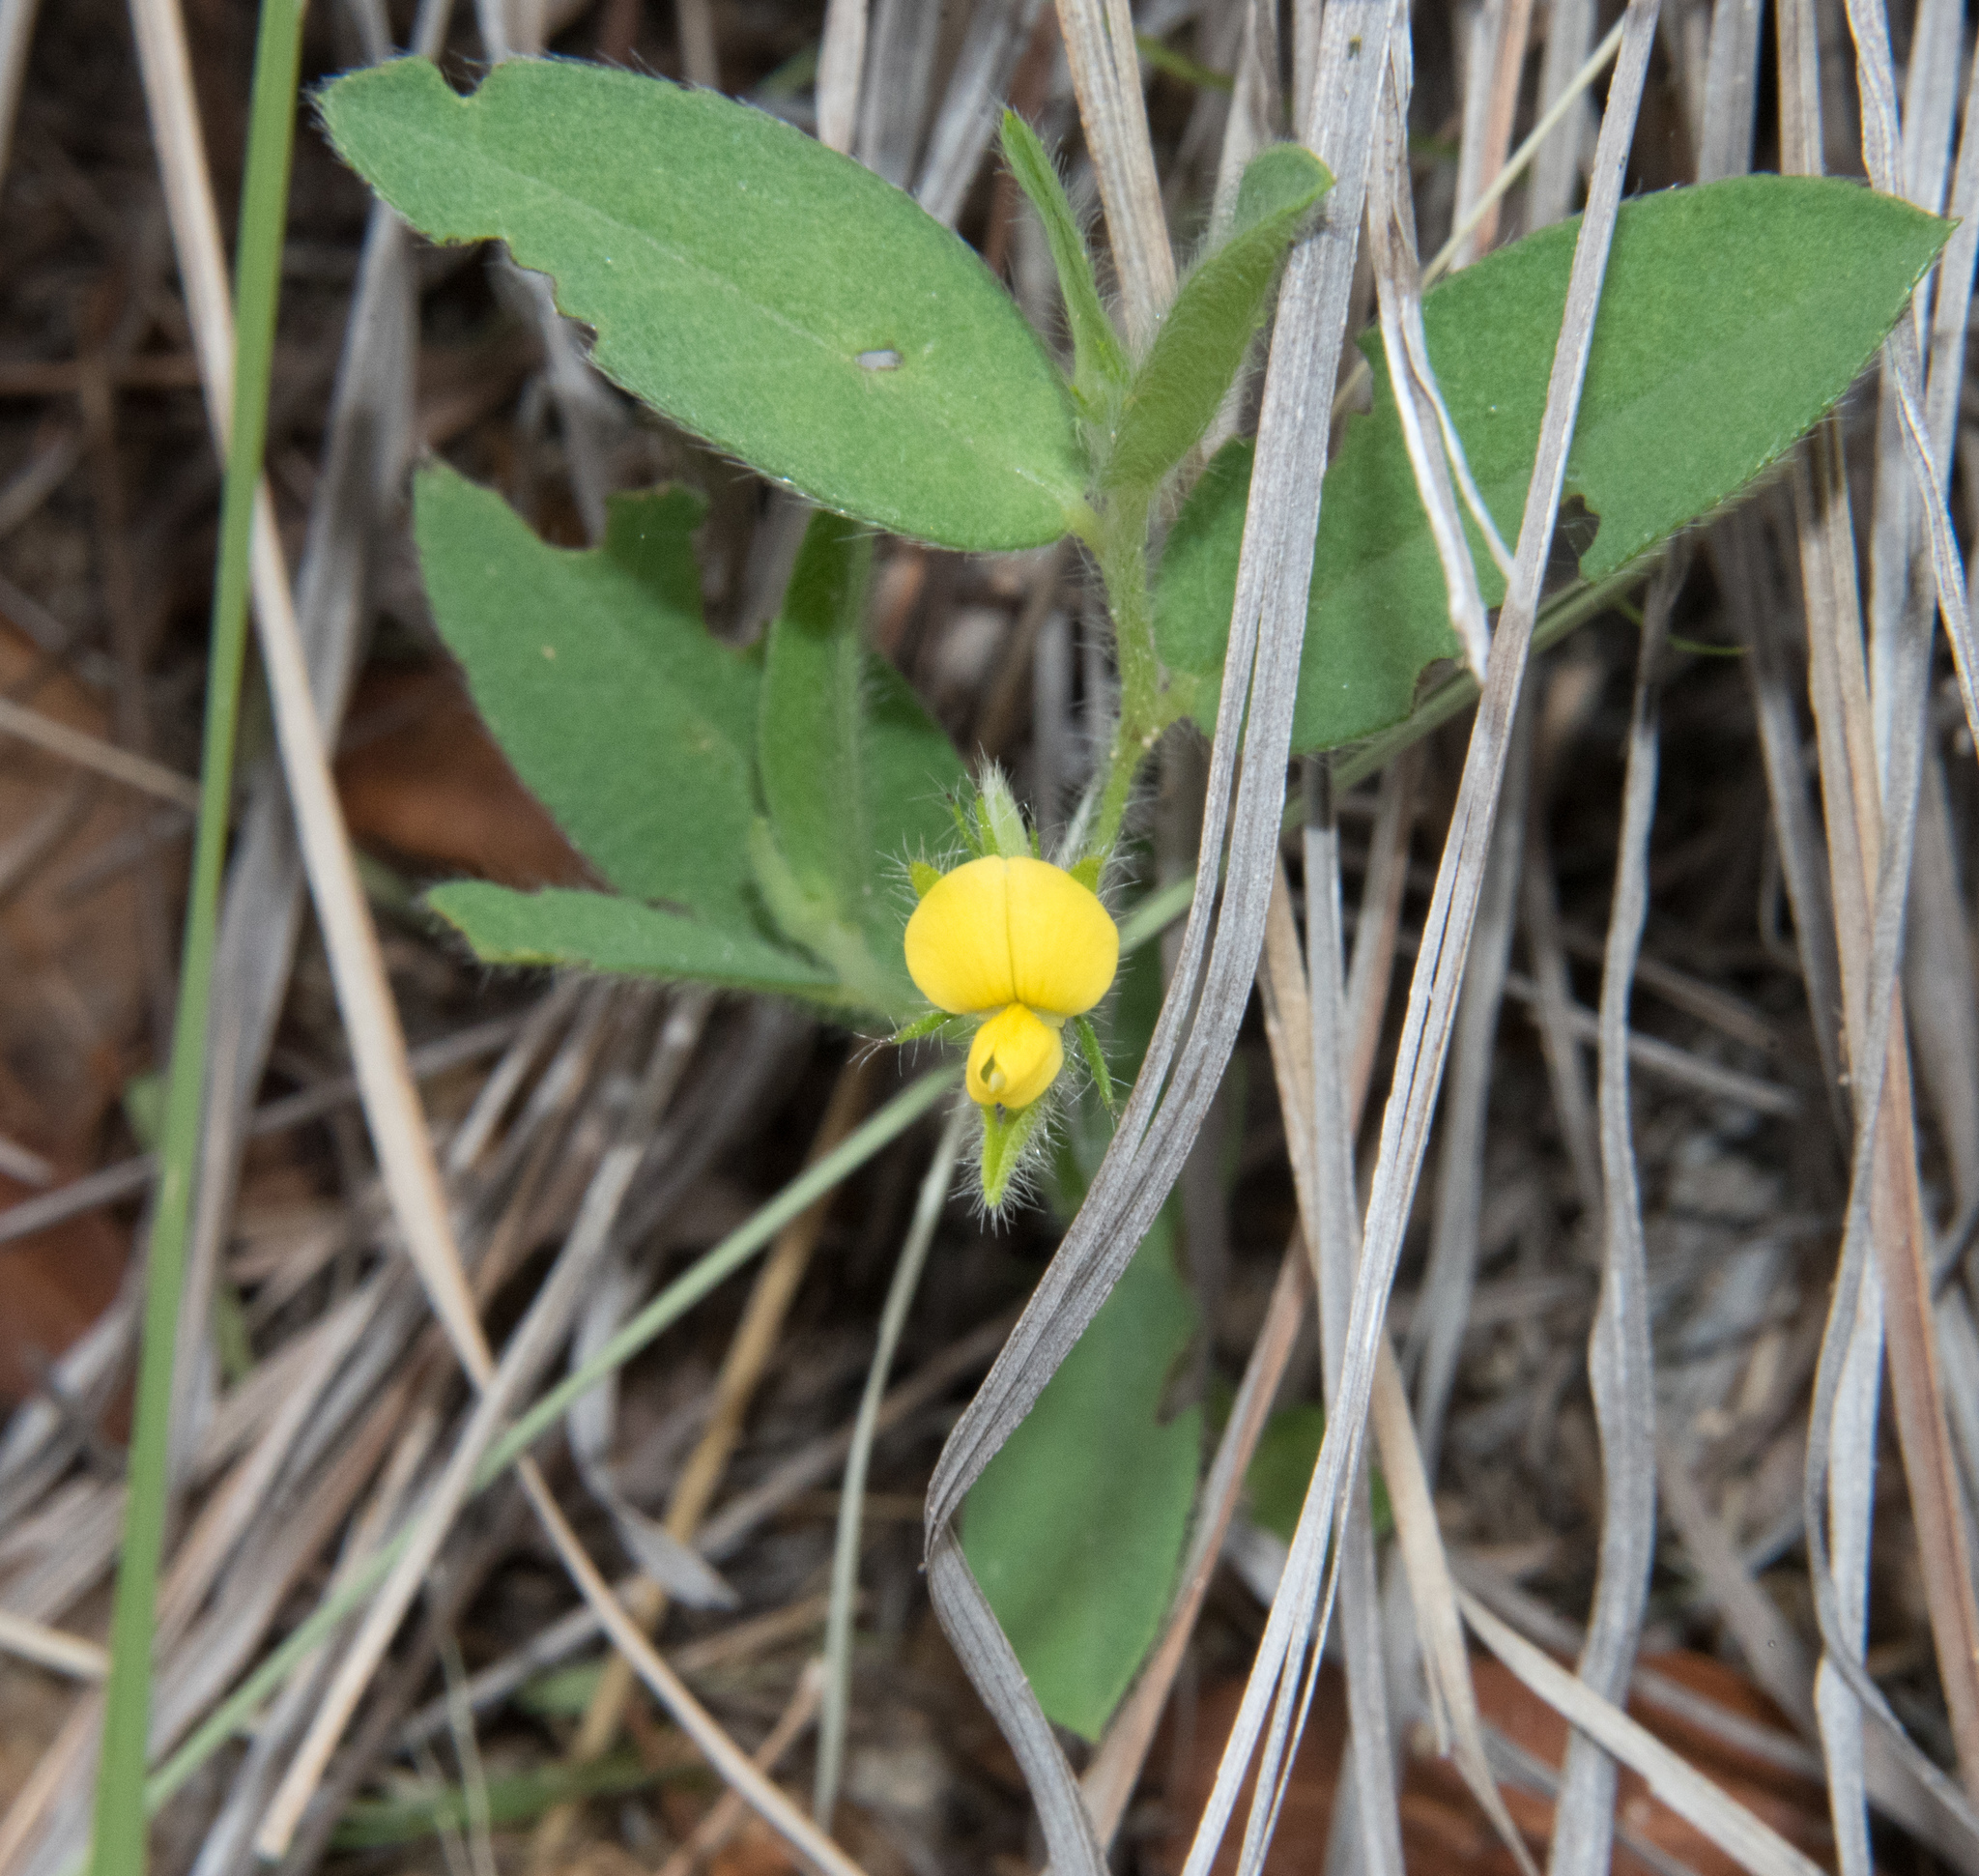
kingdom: Plantae
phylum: Tracheophyta
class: Magnoliopsida
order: Fabales
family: Fabaceae
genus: Crotalaria
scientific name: Crotalaria sagittalis
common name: Arrowhead rattlebox
